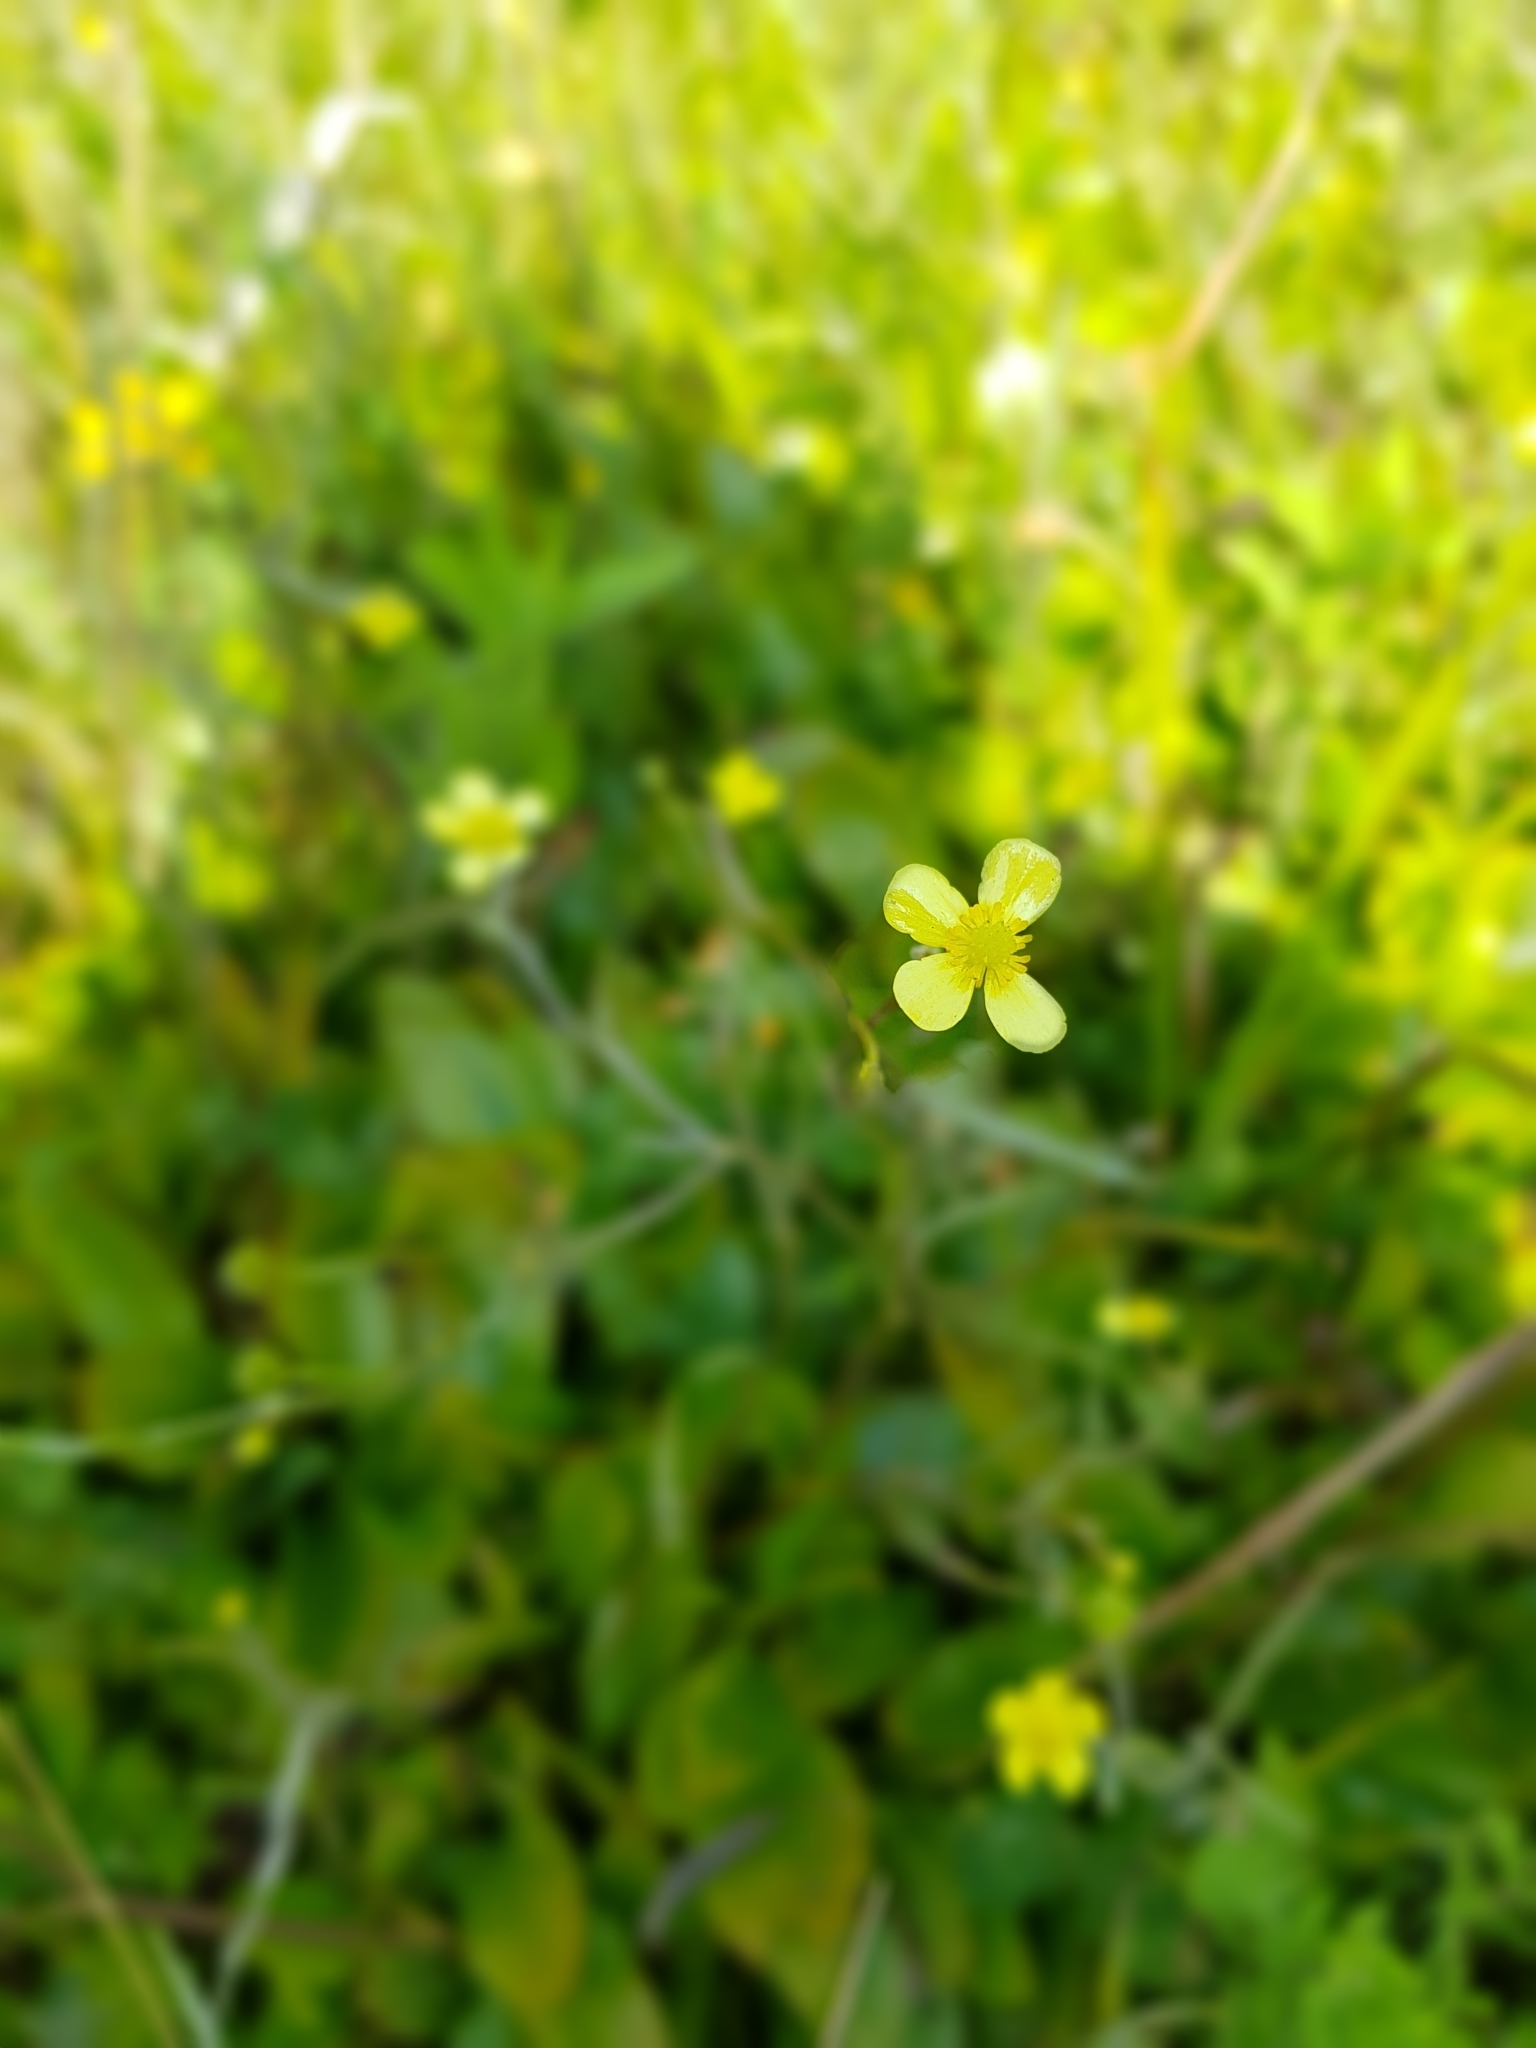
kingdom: Plantae
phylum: Tracheophyta
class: Magnoliopsida
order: Ranunculales
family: Ranunculaceae
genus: Ranunculus
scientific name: Ranunculus flammula
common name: Lesser spearwort
